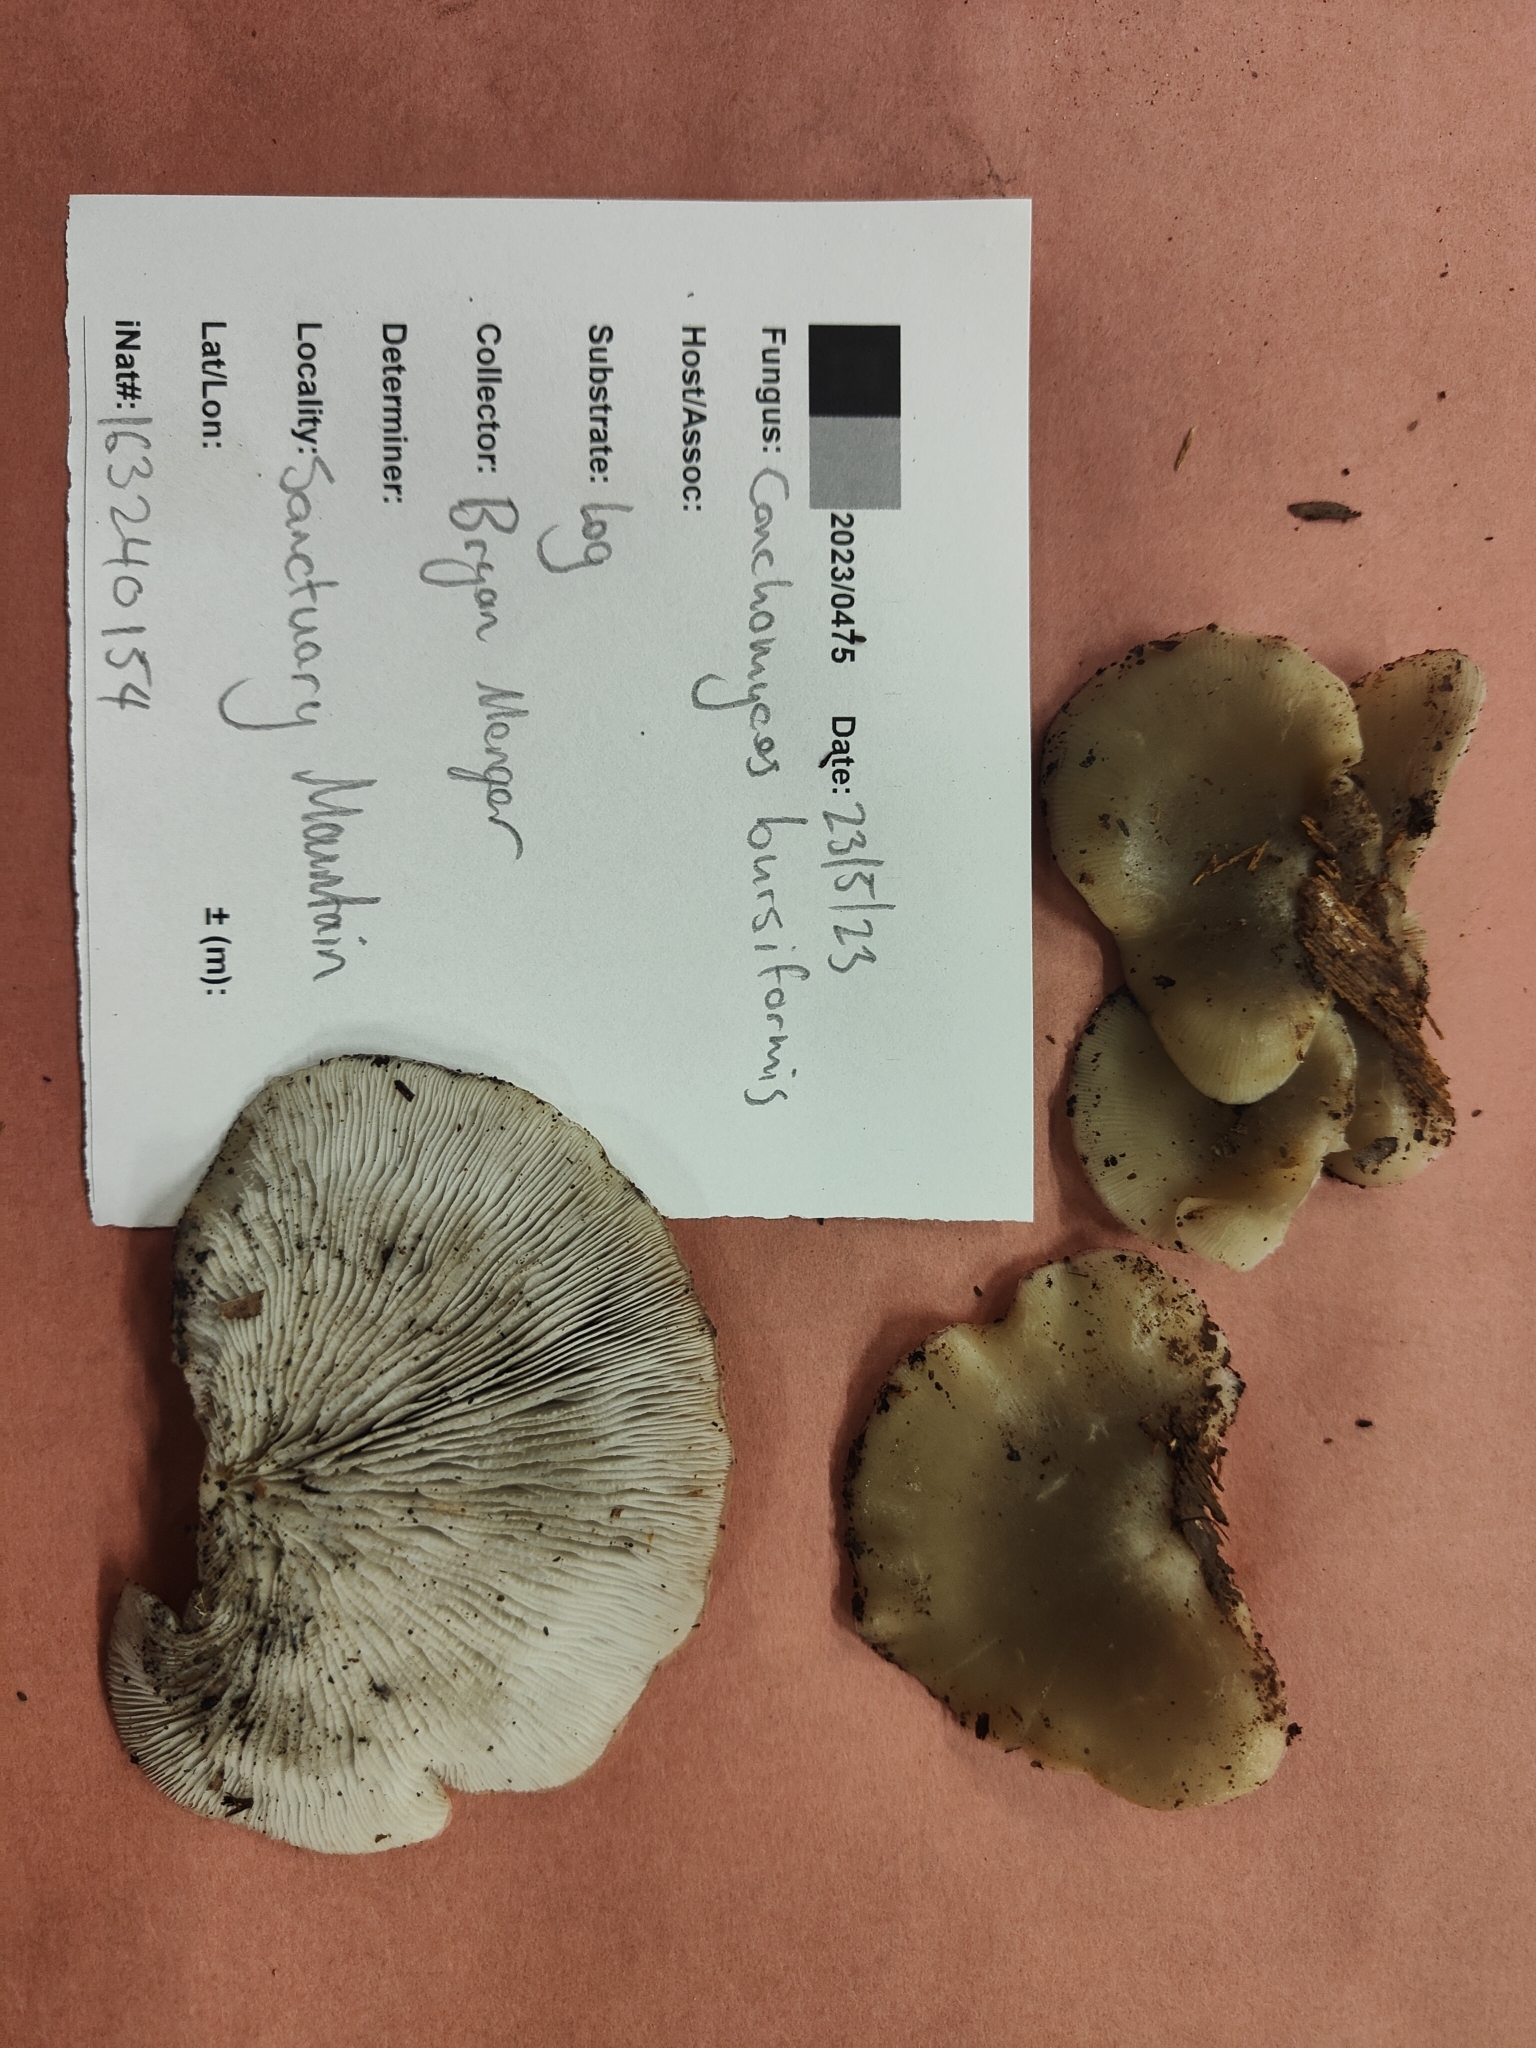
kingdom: Fungi
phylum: Basidiomycota
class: Agaricomycetes
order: Agaricales
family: Tricholomataceae
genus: Conchomyces
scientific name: Conchomyces bursiformis
